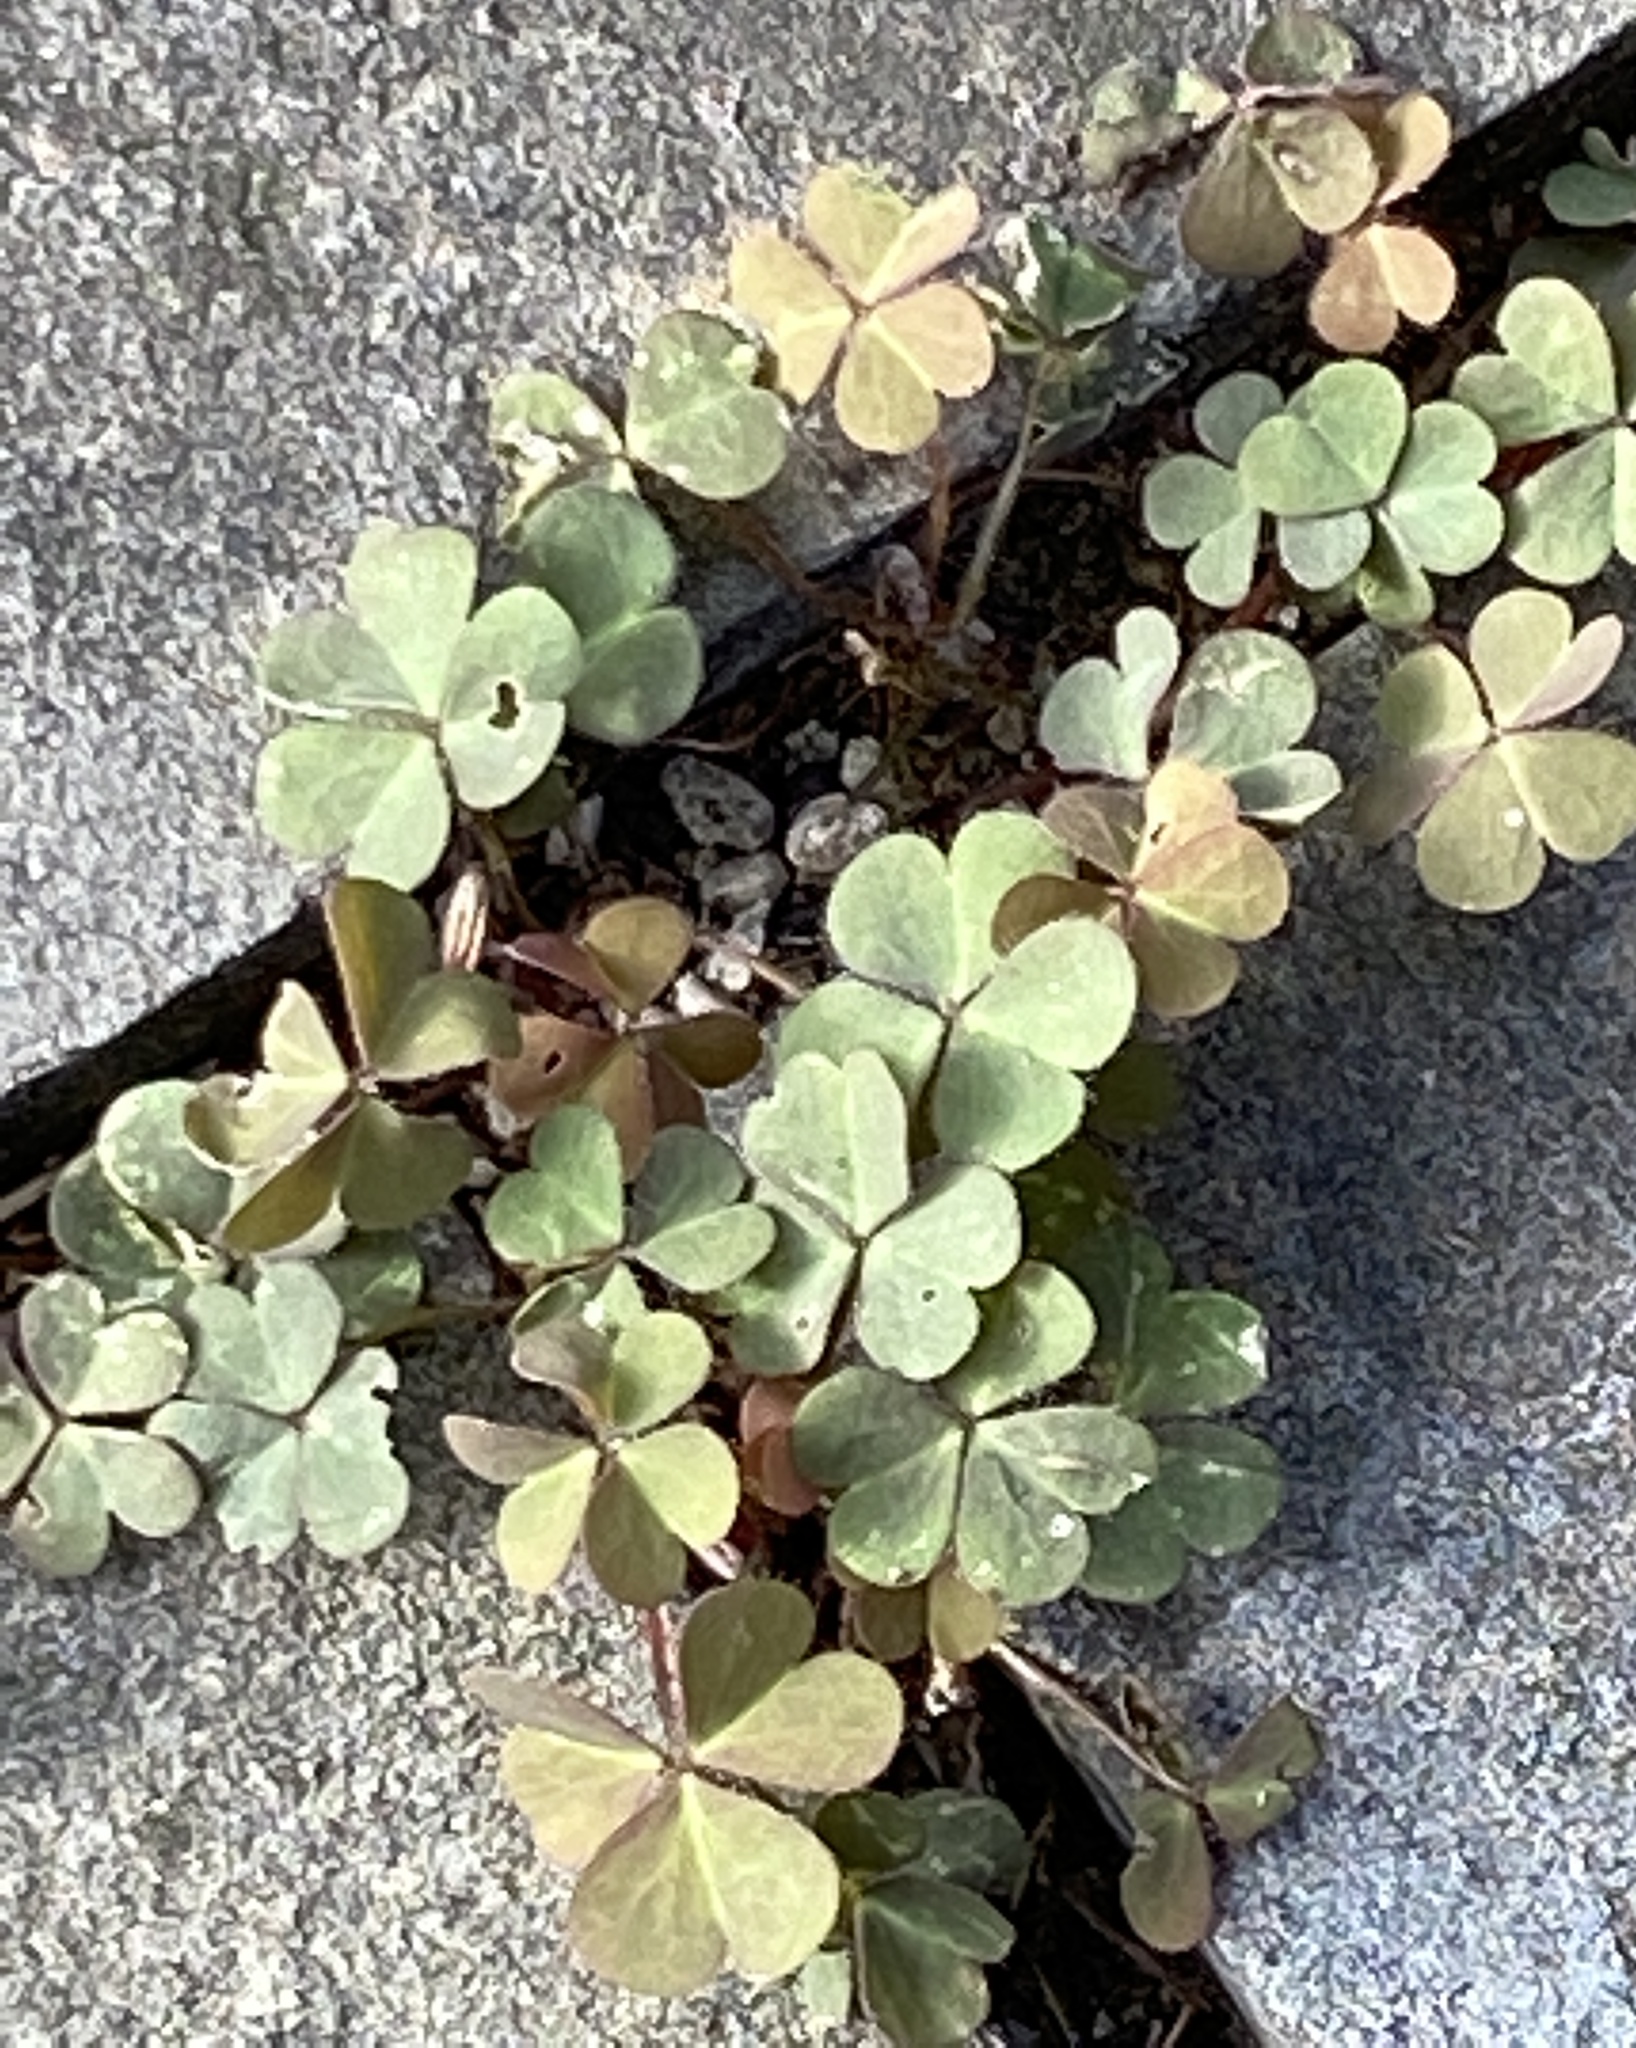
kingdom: Plantae
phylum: Tracheophyta
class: Magnoliopsida
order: Oxalidales
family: Oxalidaceae
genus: Oxalis
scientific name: Oxalis corniculata
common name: Procumbent yellow-sorrel
